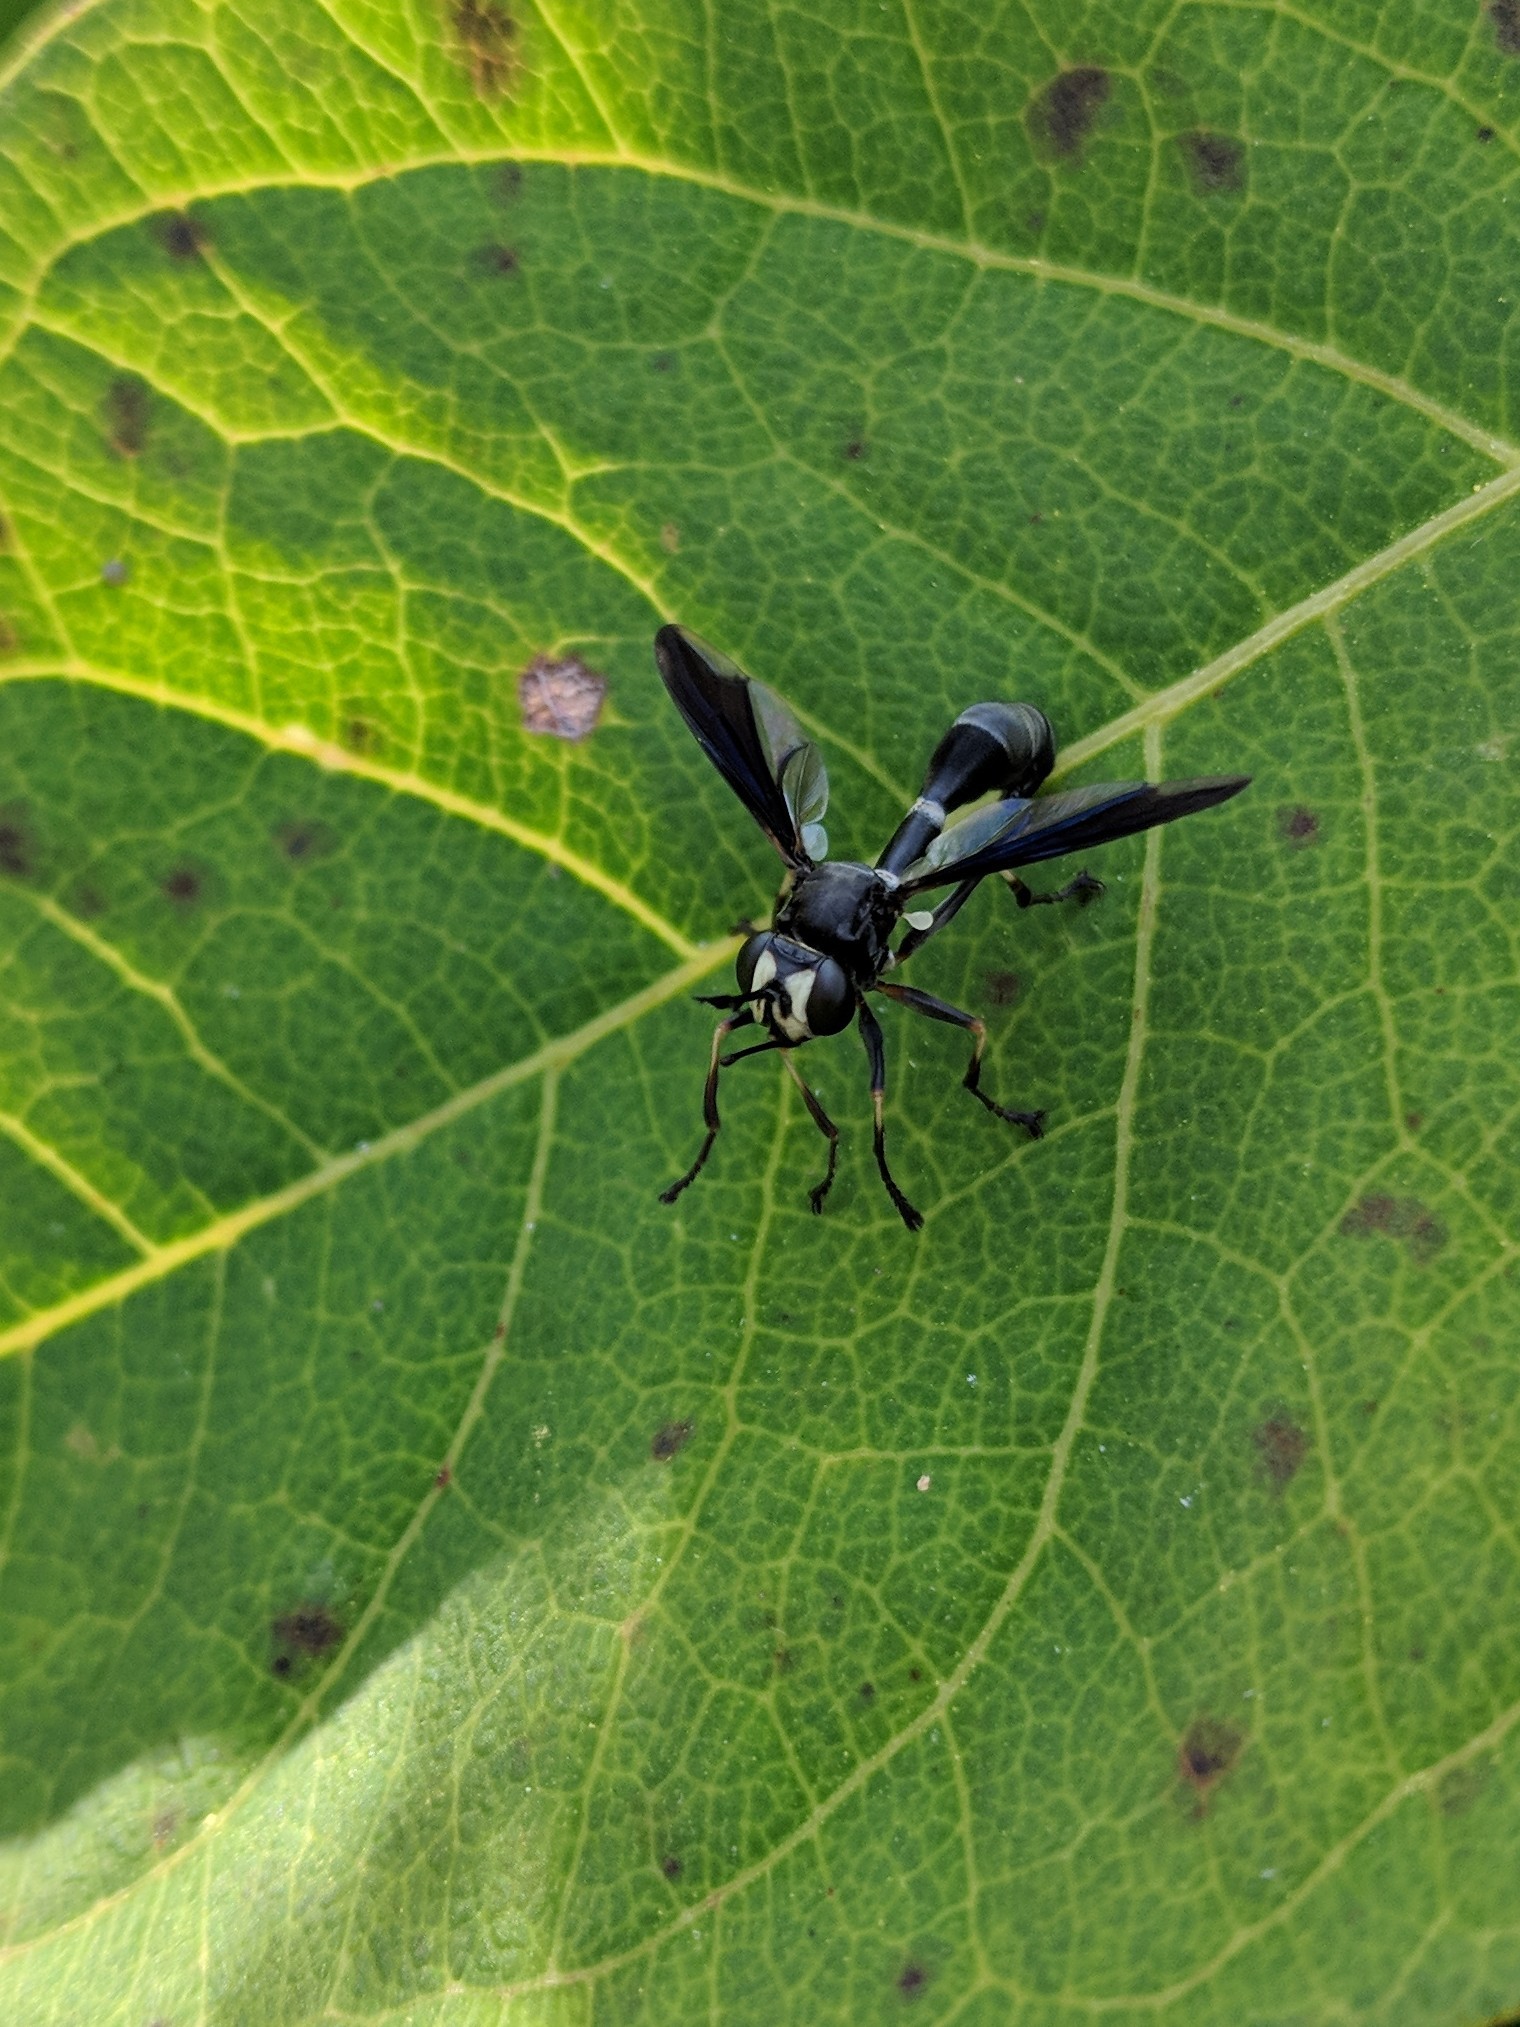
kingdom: Animalia
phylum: Arthropoda
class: Insecta
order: Diptera
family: Conopidae
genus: Physocephala
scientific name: Physocephala tibialis
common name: Common eastern physocephala
